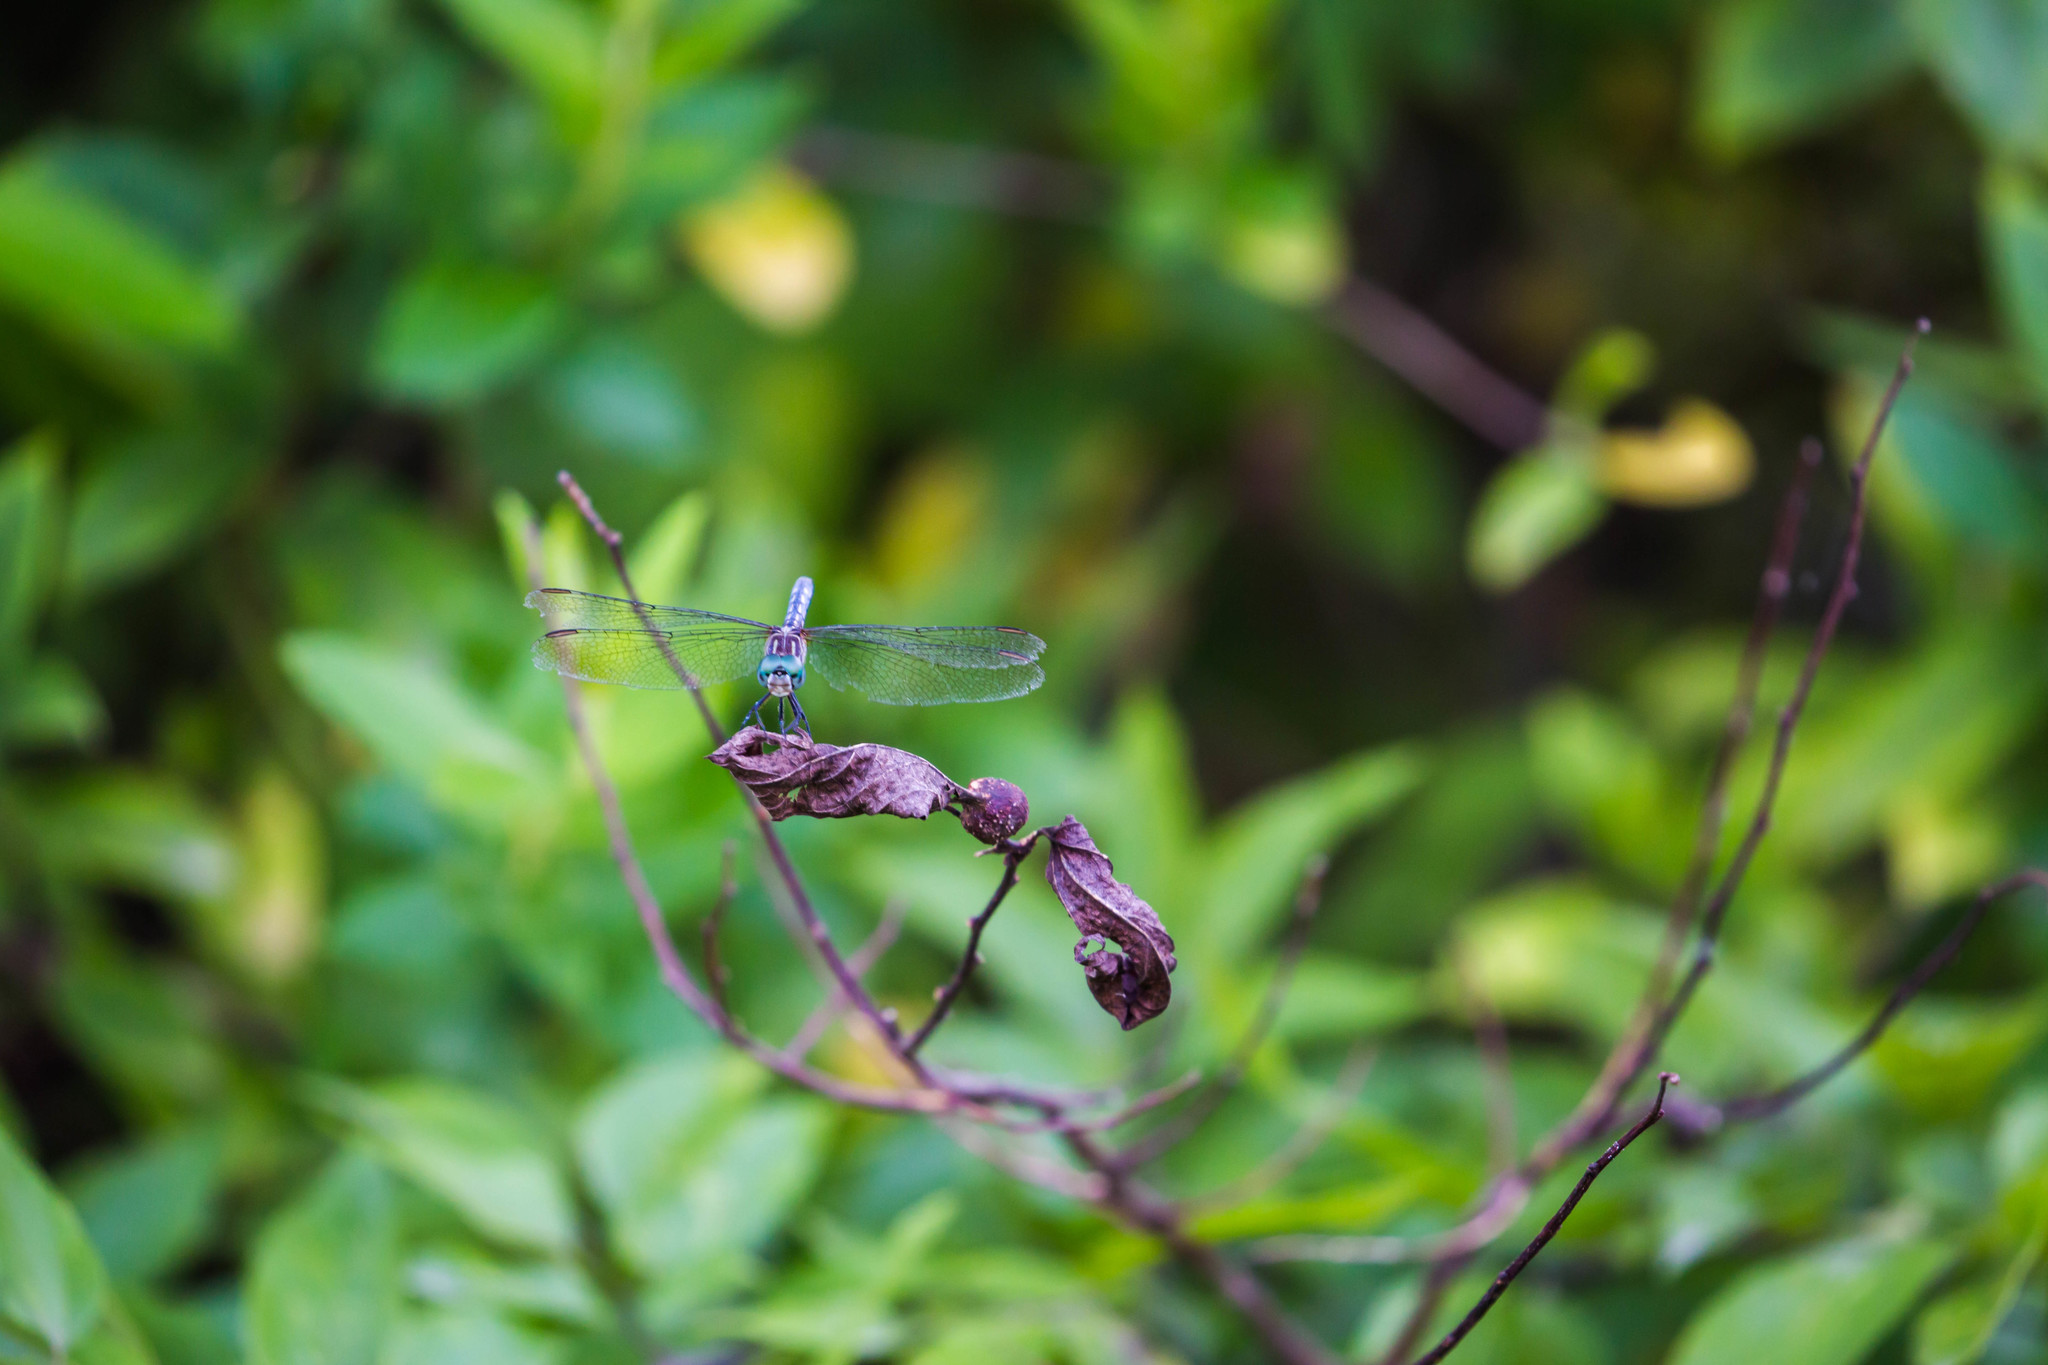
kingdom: Animalia
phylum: Arthropoda
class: Insecta
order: Odonata
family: Libellulidae
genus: Pachydiplax
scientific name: Pachydiplax longipennis
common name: Blue dasher
